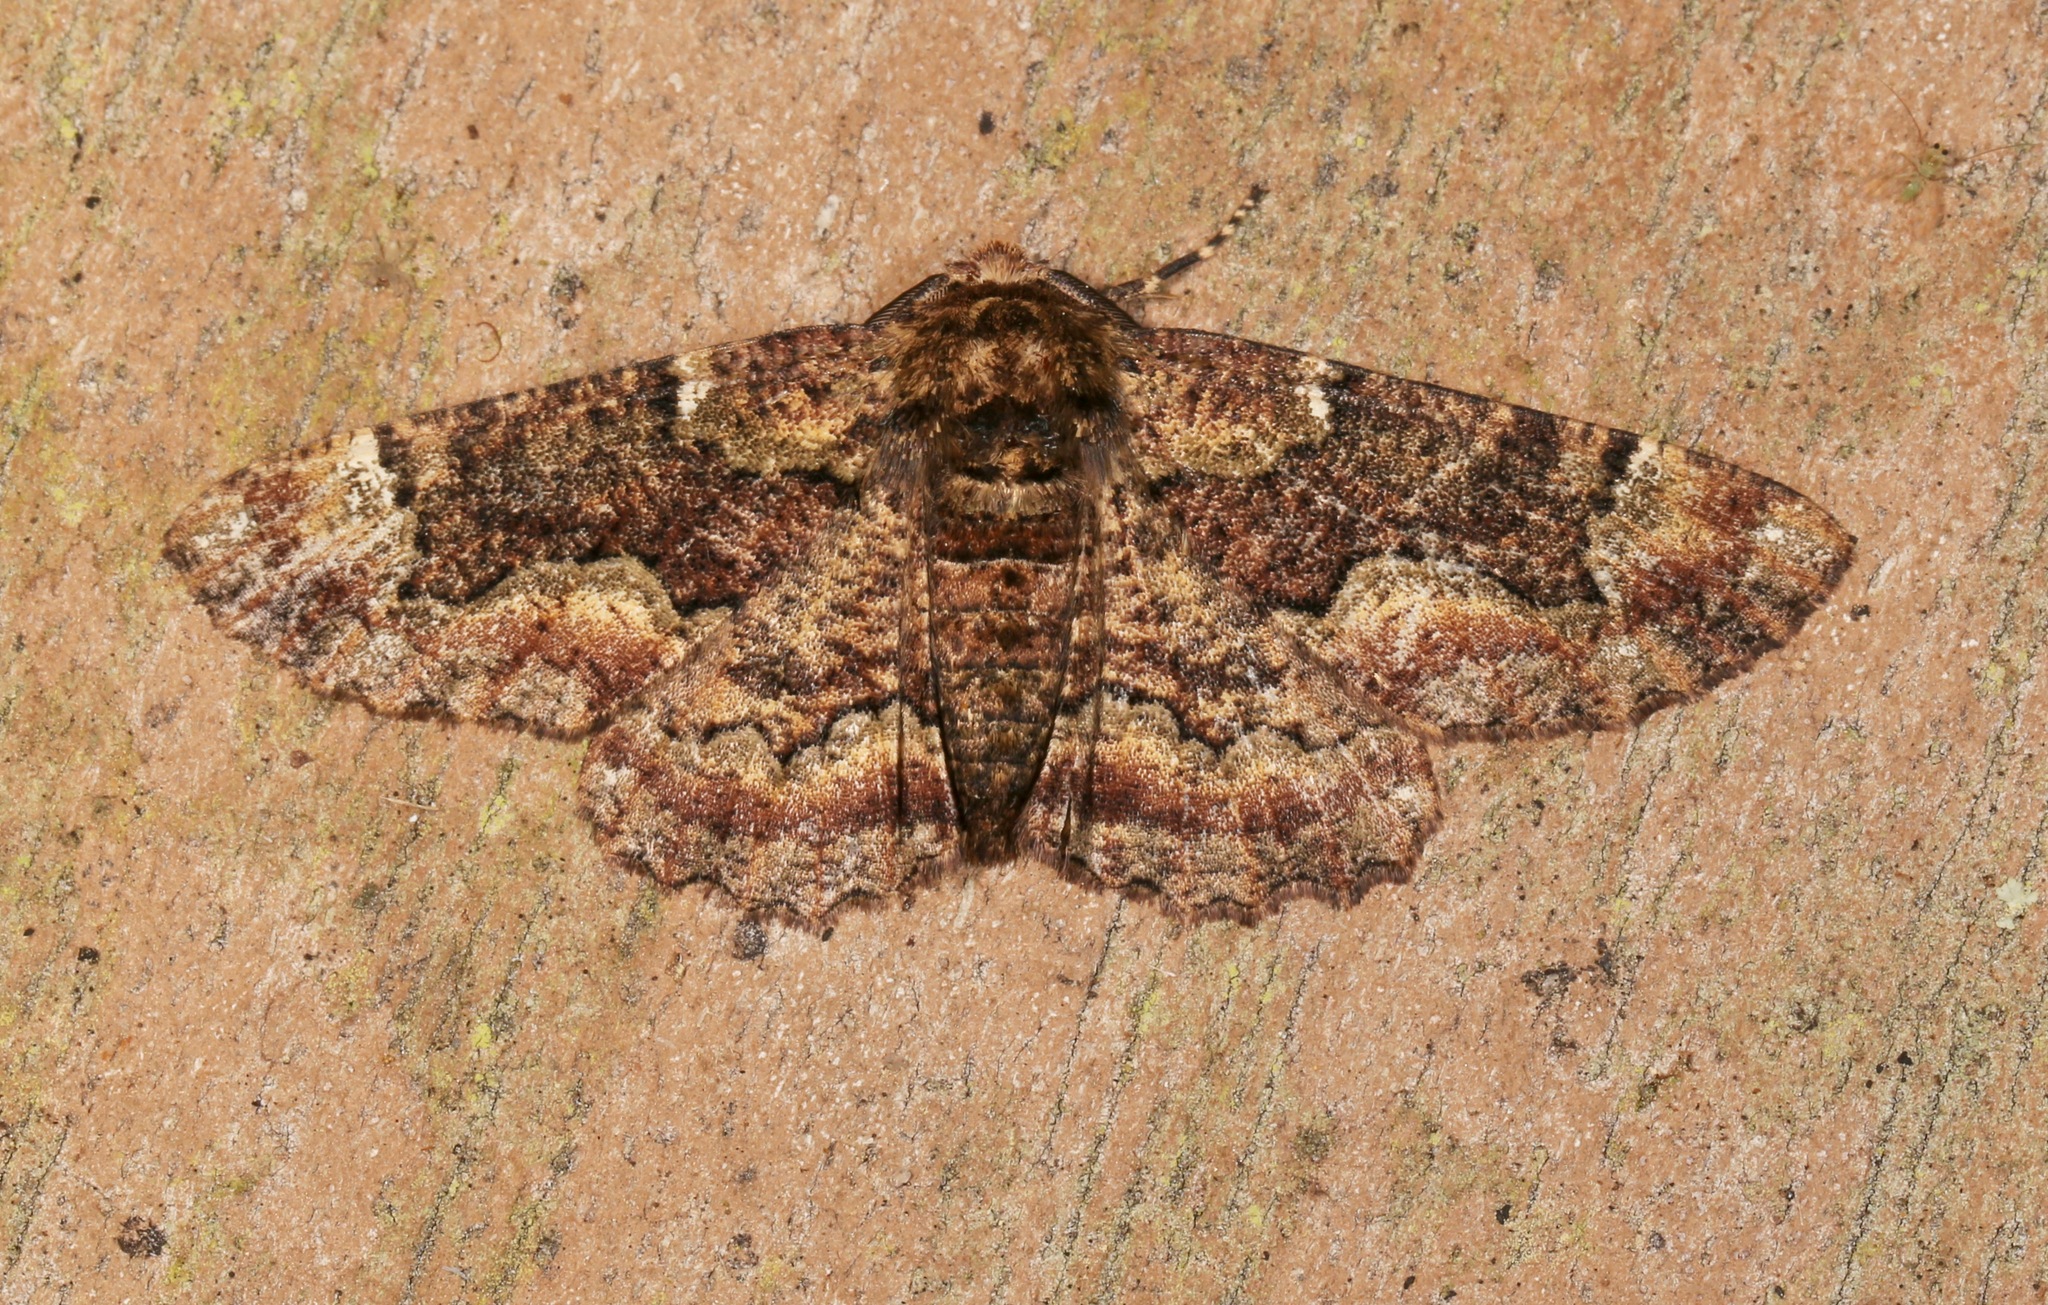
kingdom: Animalia
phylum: Arthropoda
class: Insecta
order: Lepidoptera
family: Geometridae
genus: Phaeoura
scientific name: Phaeoura quernaria
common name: Oak beauty
